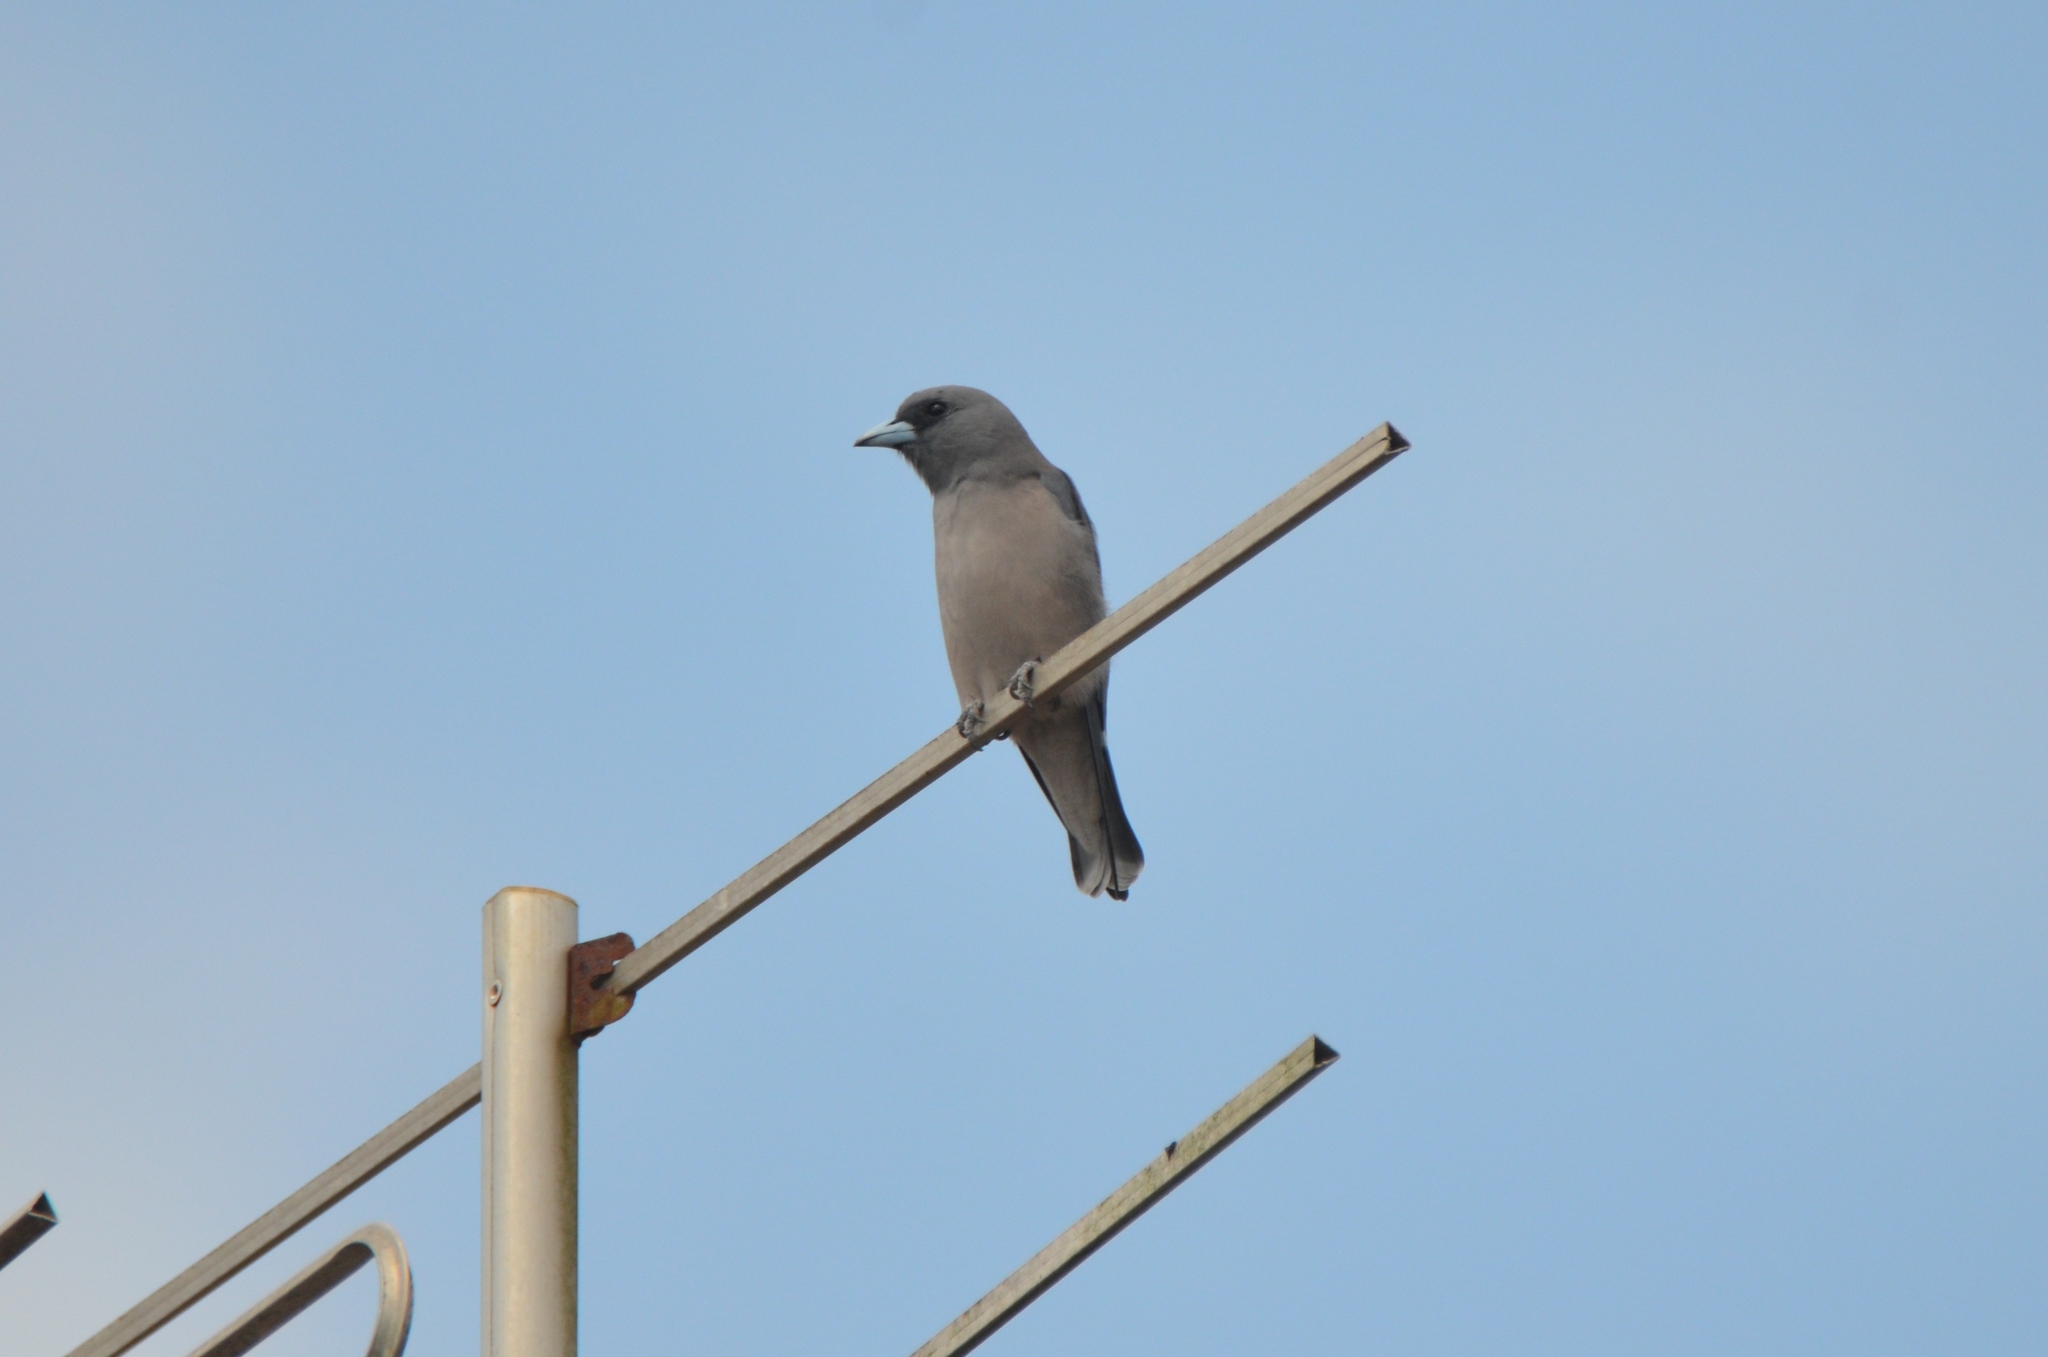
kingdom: Animalia
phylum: Chordata
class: Aves
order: Passeriformes
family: Artamidae
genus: Artamus
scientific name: Artamus fuscus
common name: Ashy woodswallow
